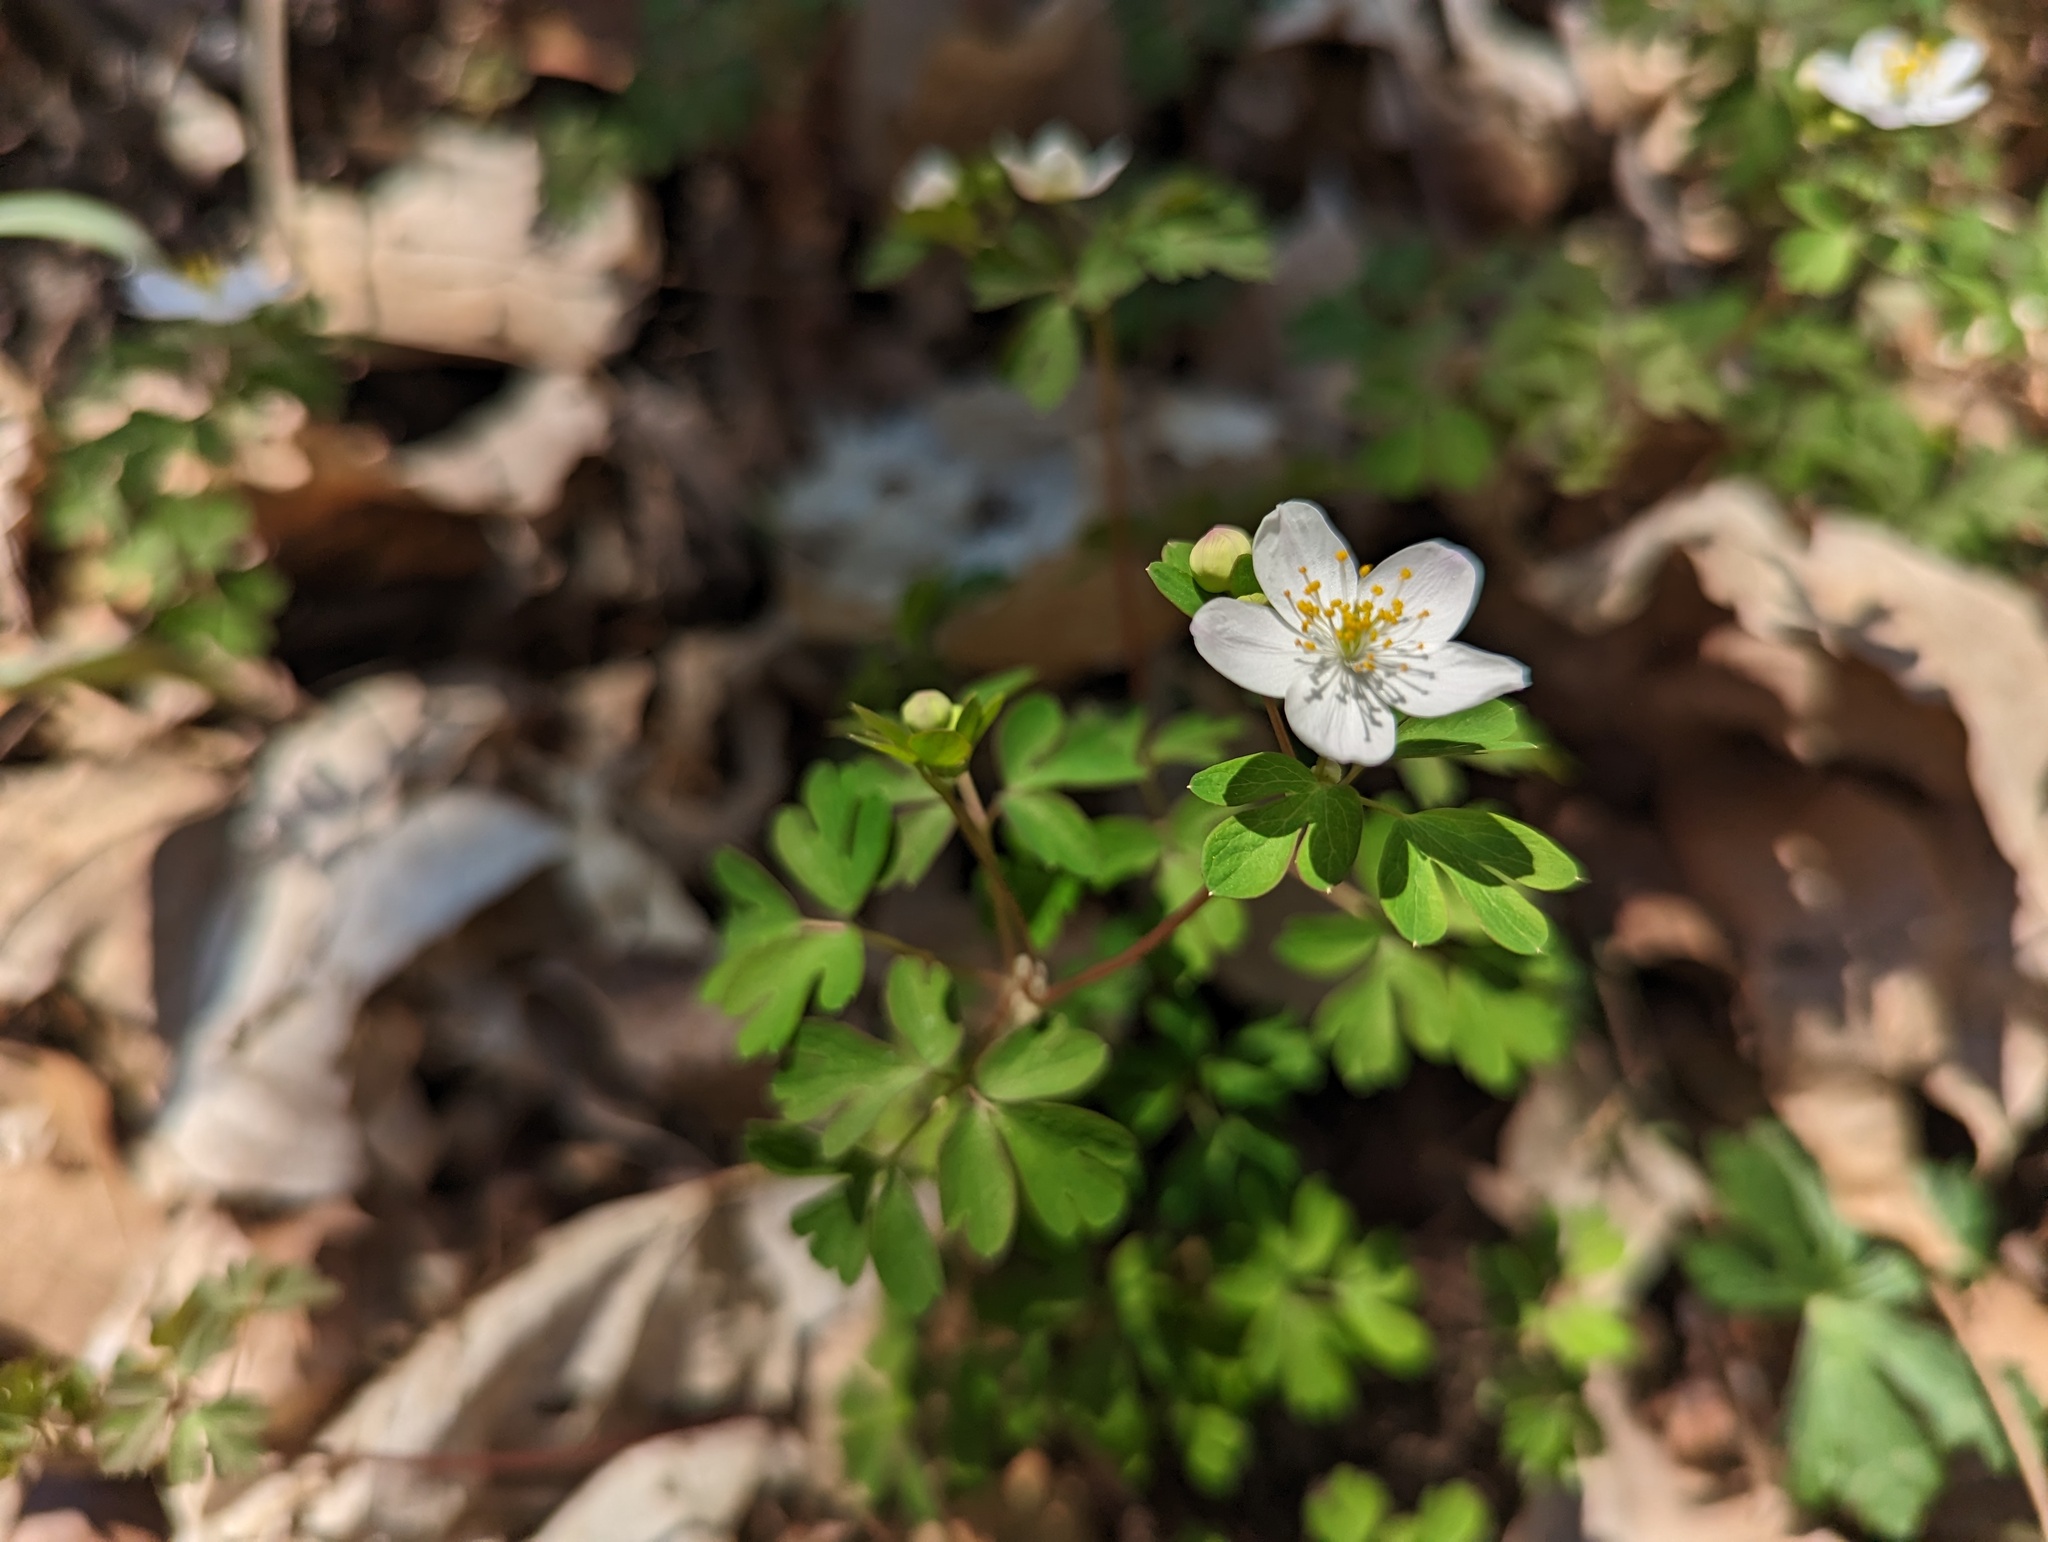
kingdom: Plantae
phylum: Tracheophyta
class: Magnoliopsida
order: Ranunculales
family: Ranunculaceae
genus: Enemion
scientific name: Enemion biternatum
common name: Eastern false rue-anemone
